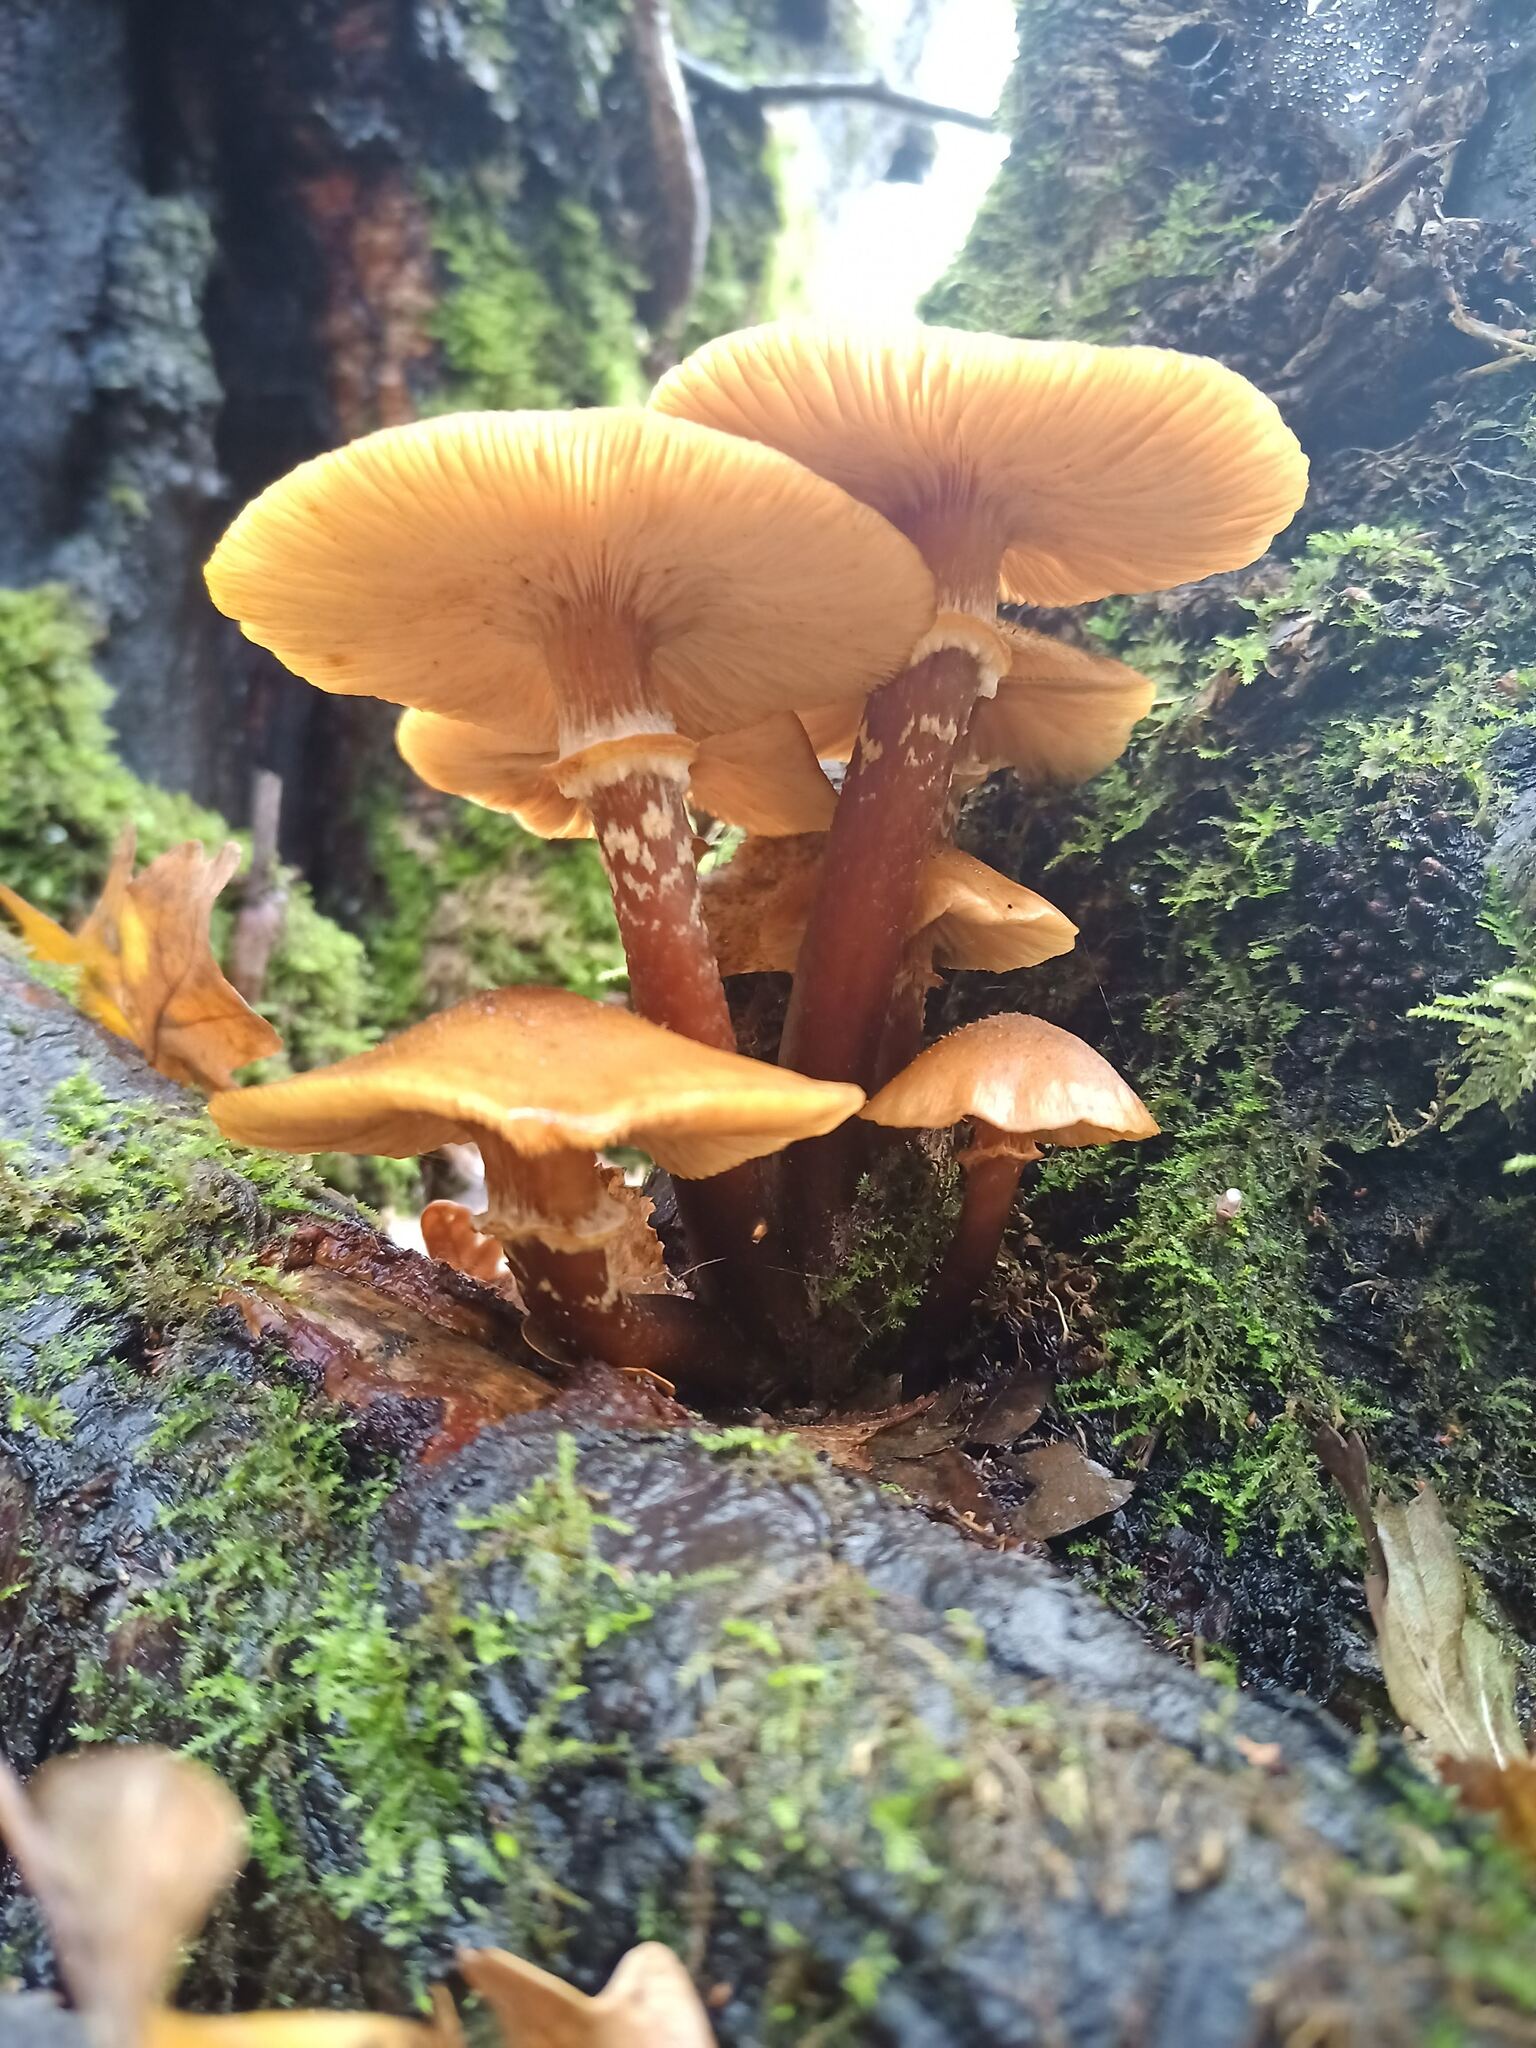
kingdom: Fungi
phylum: Basidiomycota
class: Agaricomycetes
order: Agaricales
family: Physalacriaceae
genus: Armillaria
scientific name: Armillaria mellea
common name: Honey fungus
